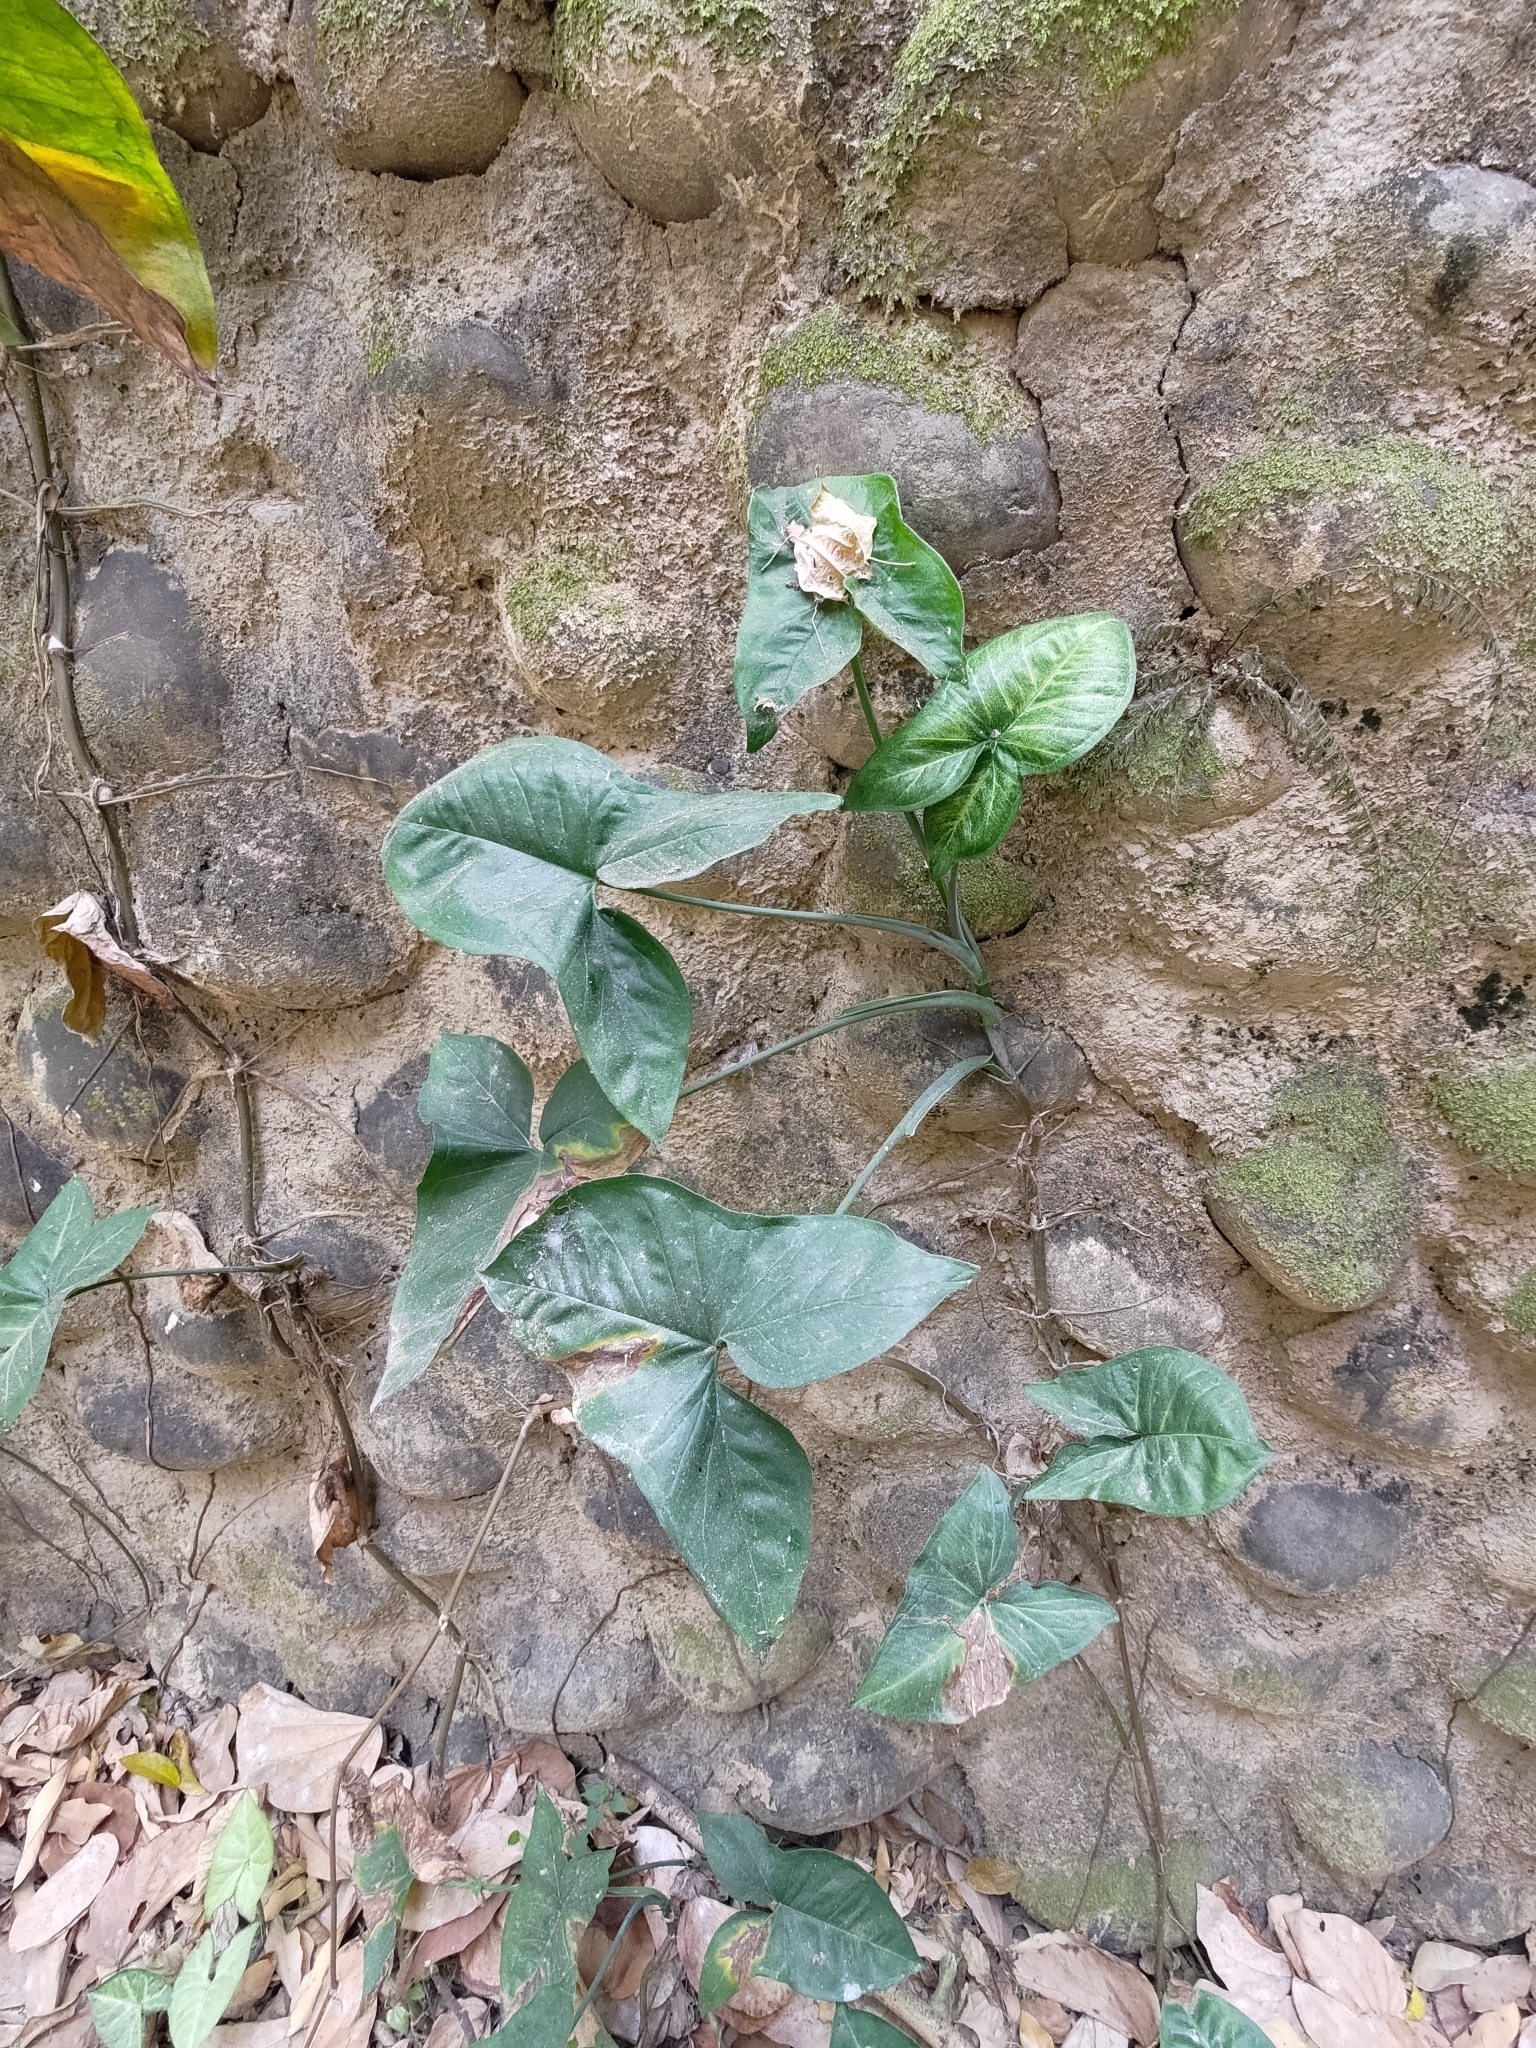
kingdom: Plantae
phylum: Tracheophyta
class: Liliopsida
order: Alismatales
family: Araceae
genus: Syngonium
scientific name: Syngonium podophyllum
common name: American evergreen
